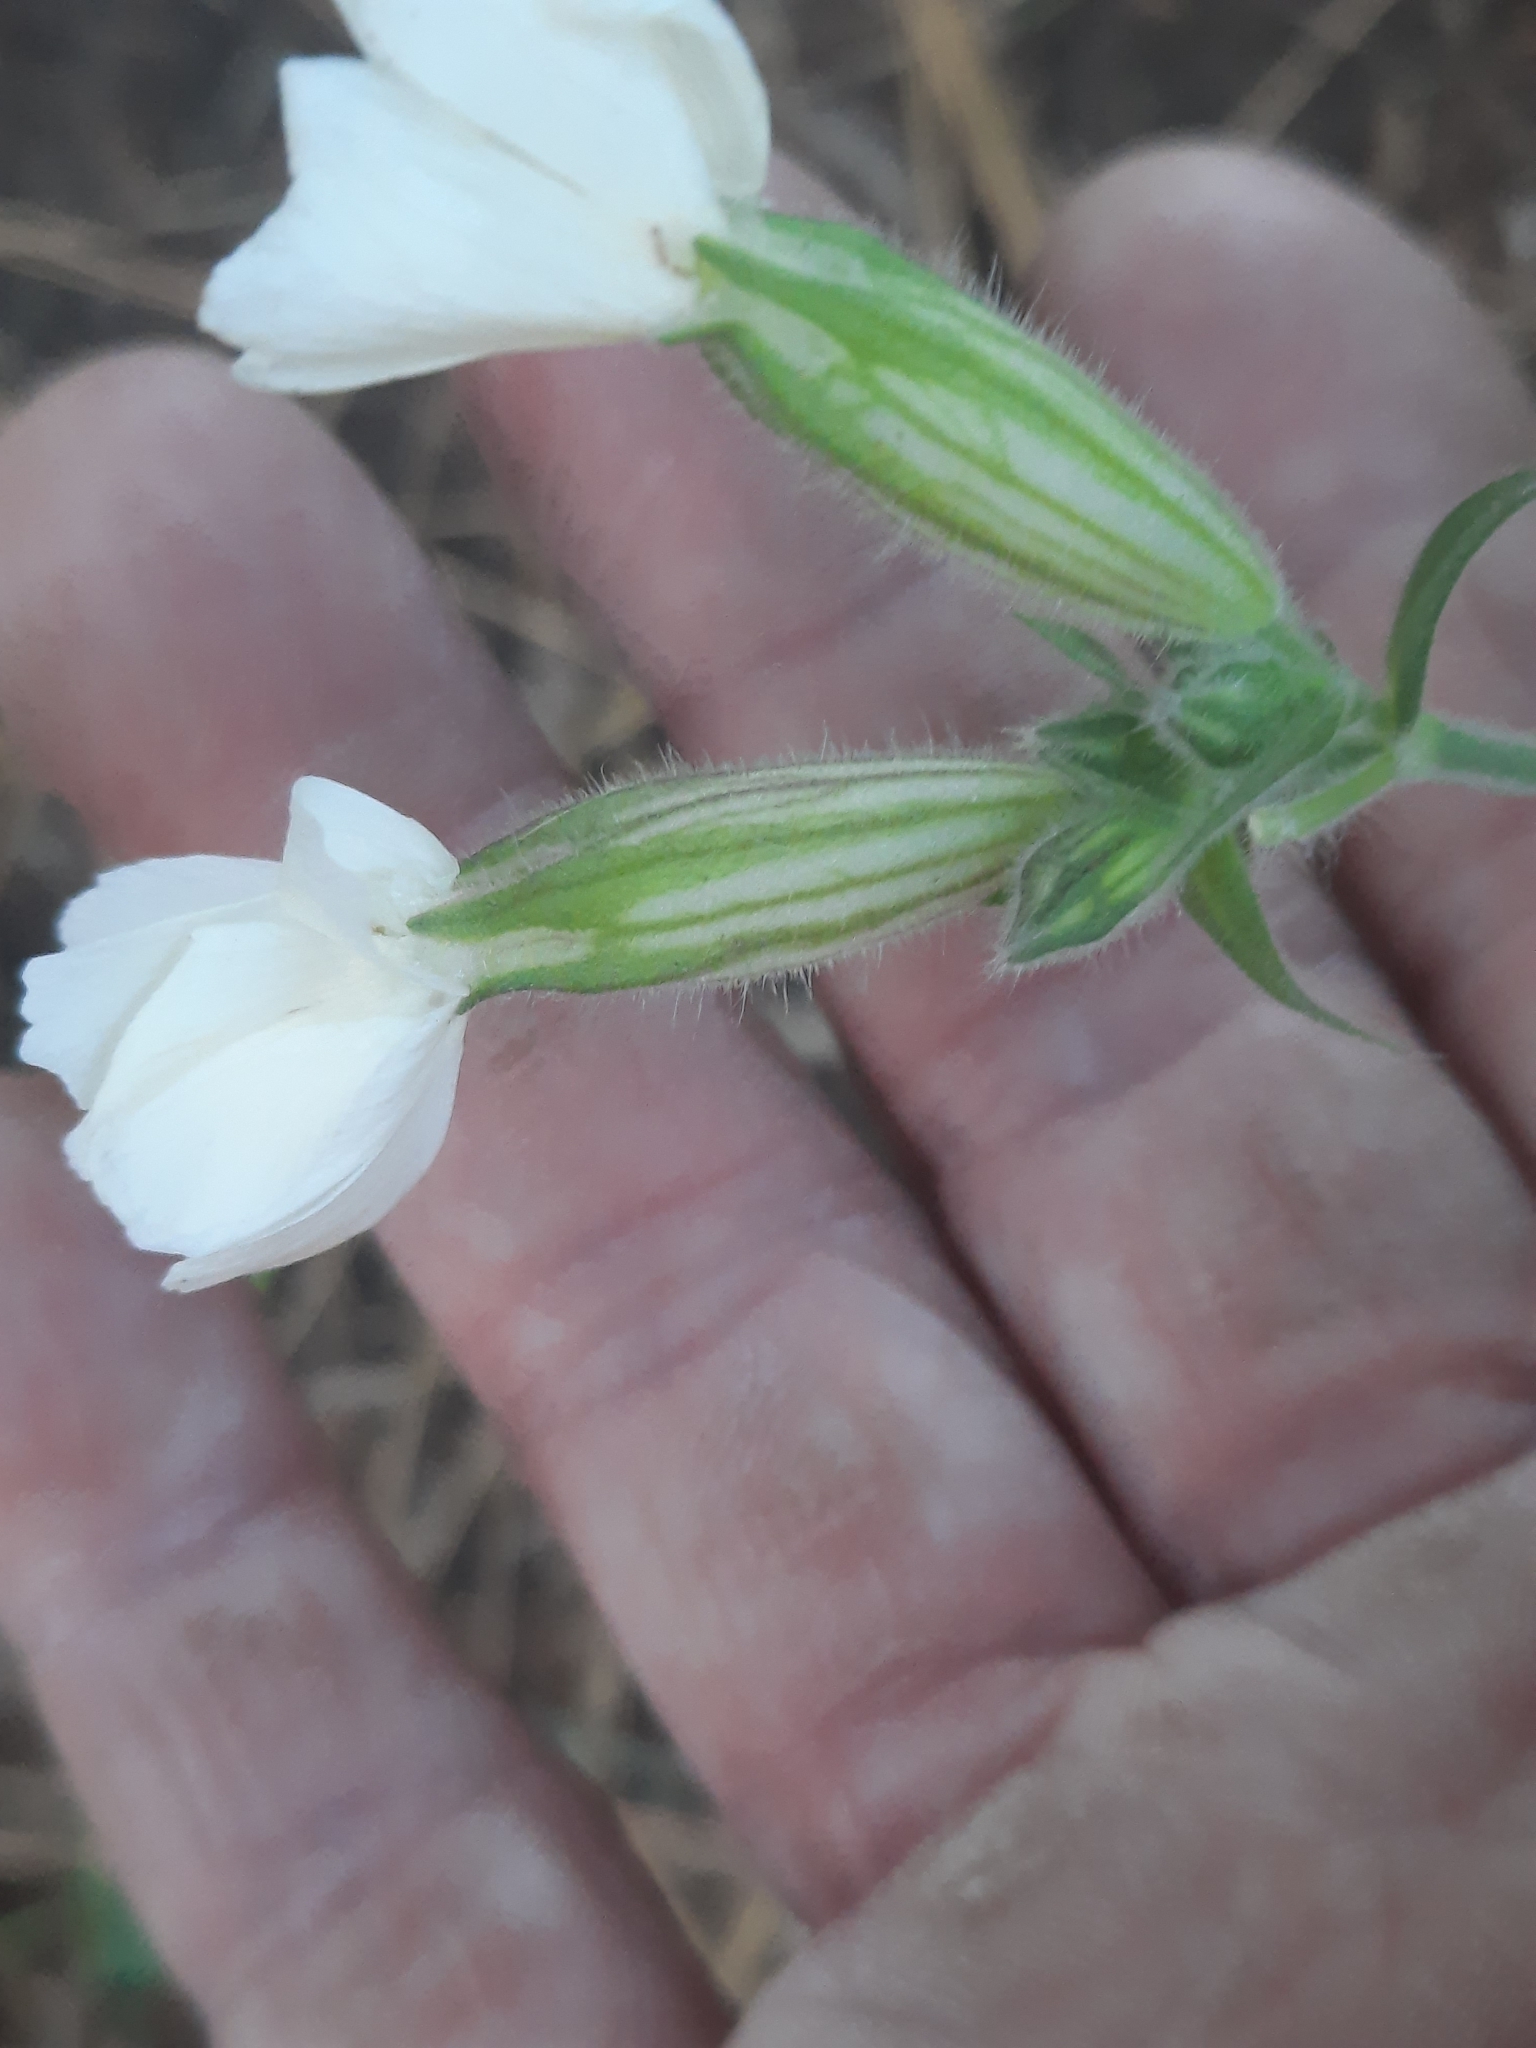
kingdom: Plantae
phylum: Tracheophyta
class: Magnoliopsida
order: Caryophyllales
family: Caryophyllaceae
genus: Silene
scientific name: Silene latifolia
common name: White campion
